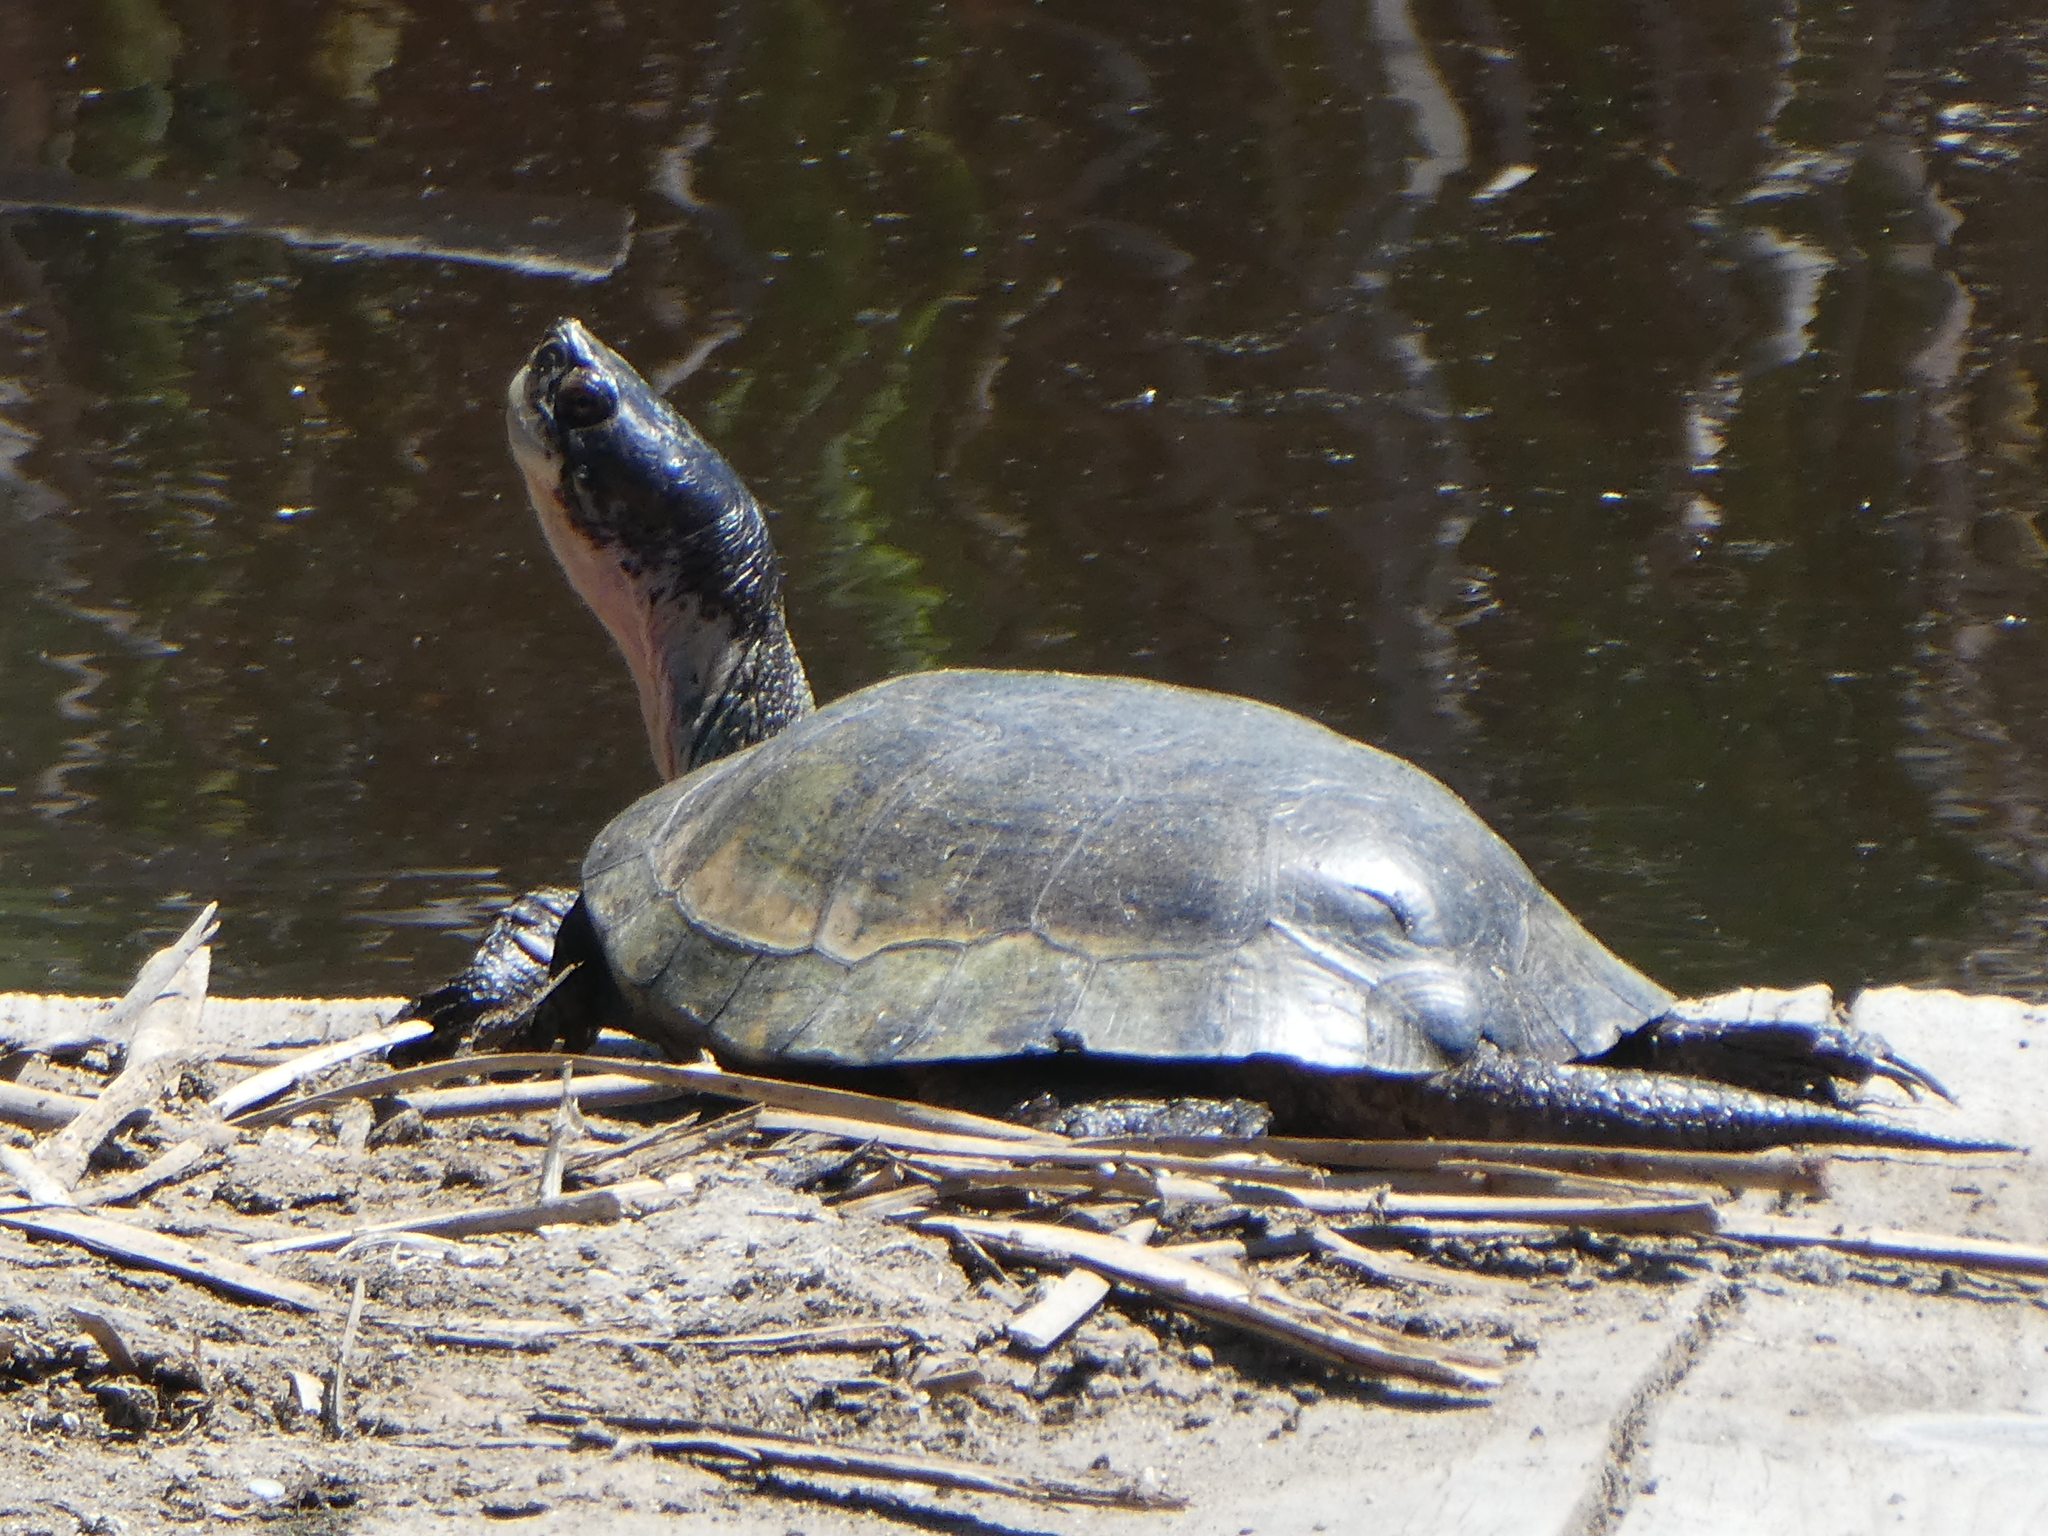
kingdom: Animalia
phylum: Chordata
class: Testudines
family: Emydidae
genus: Actinemys
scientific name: Actinemys marmorata
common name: Western pond turtle
